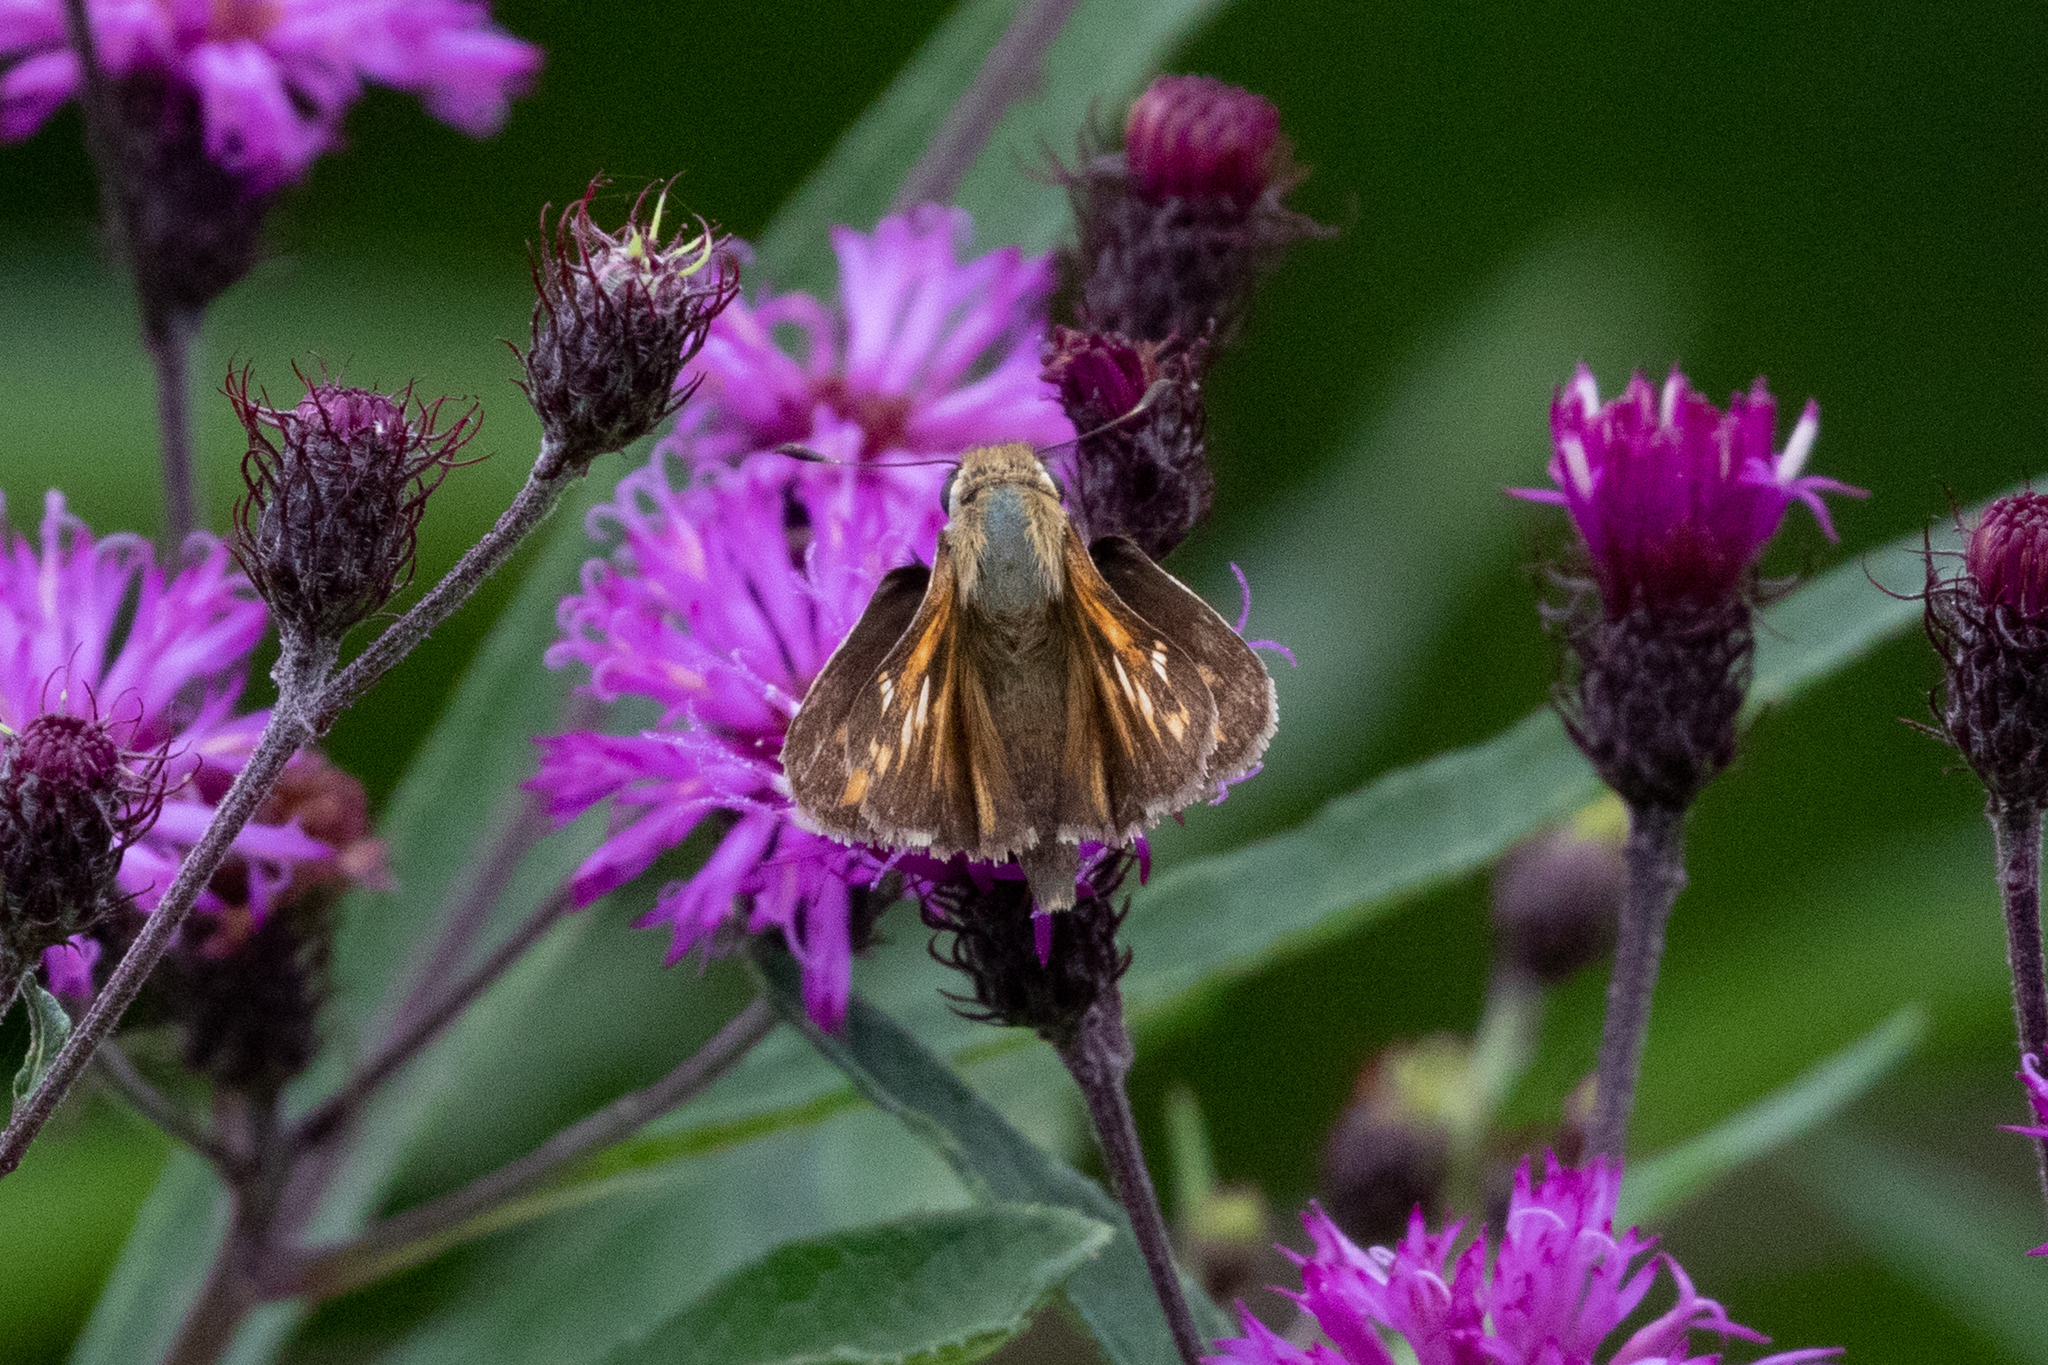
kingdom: Animalia
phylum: Arthropoda
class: Insecta
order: Lepidoptera
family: Hesperiidae
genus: Polites
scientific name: Polites themistocles
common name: Tawny-edged skipper
